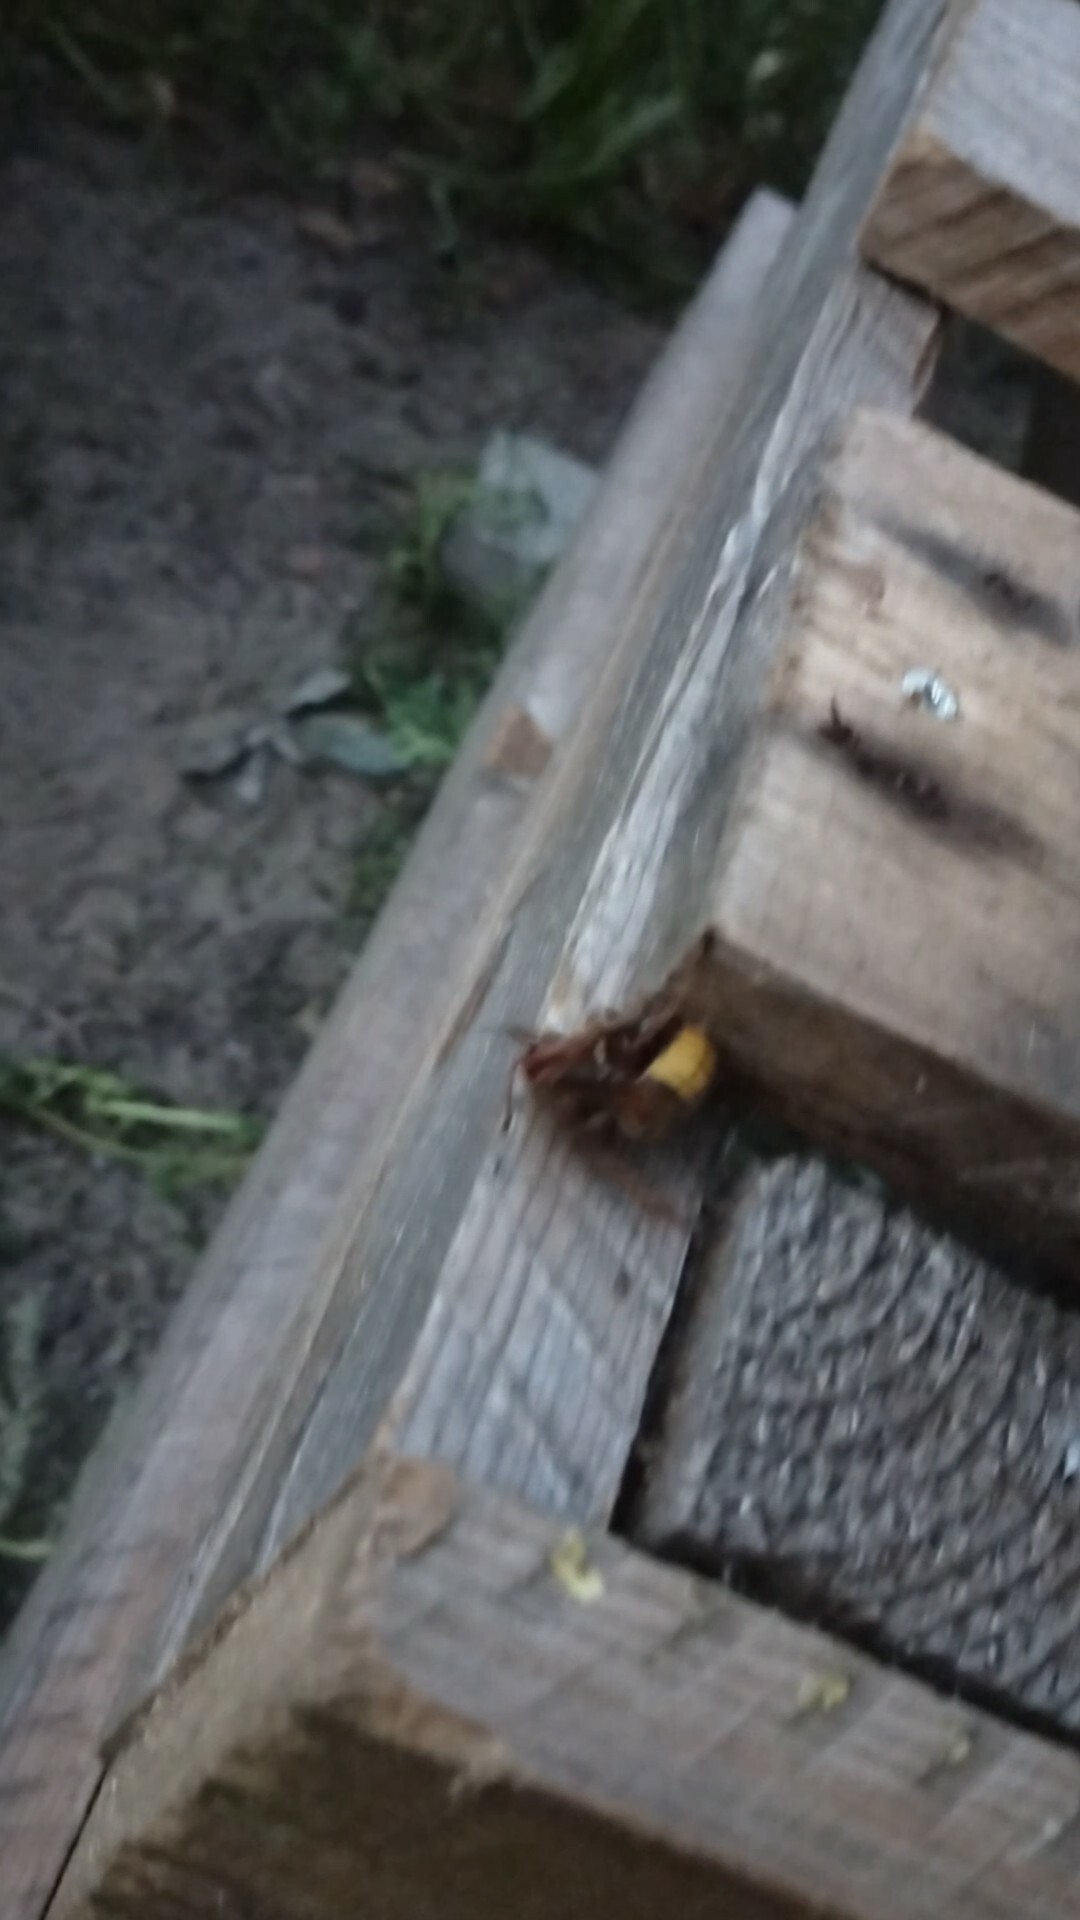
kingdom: Animalia
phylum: Arthropoda
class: Insecta
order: Hymenoptera
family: Vespidae
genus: Vespa
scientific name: Vespa crabro
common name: Hornet
